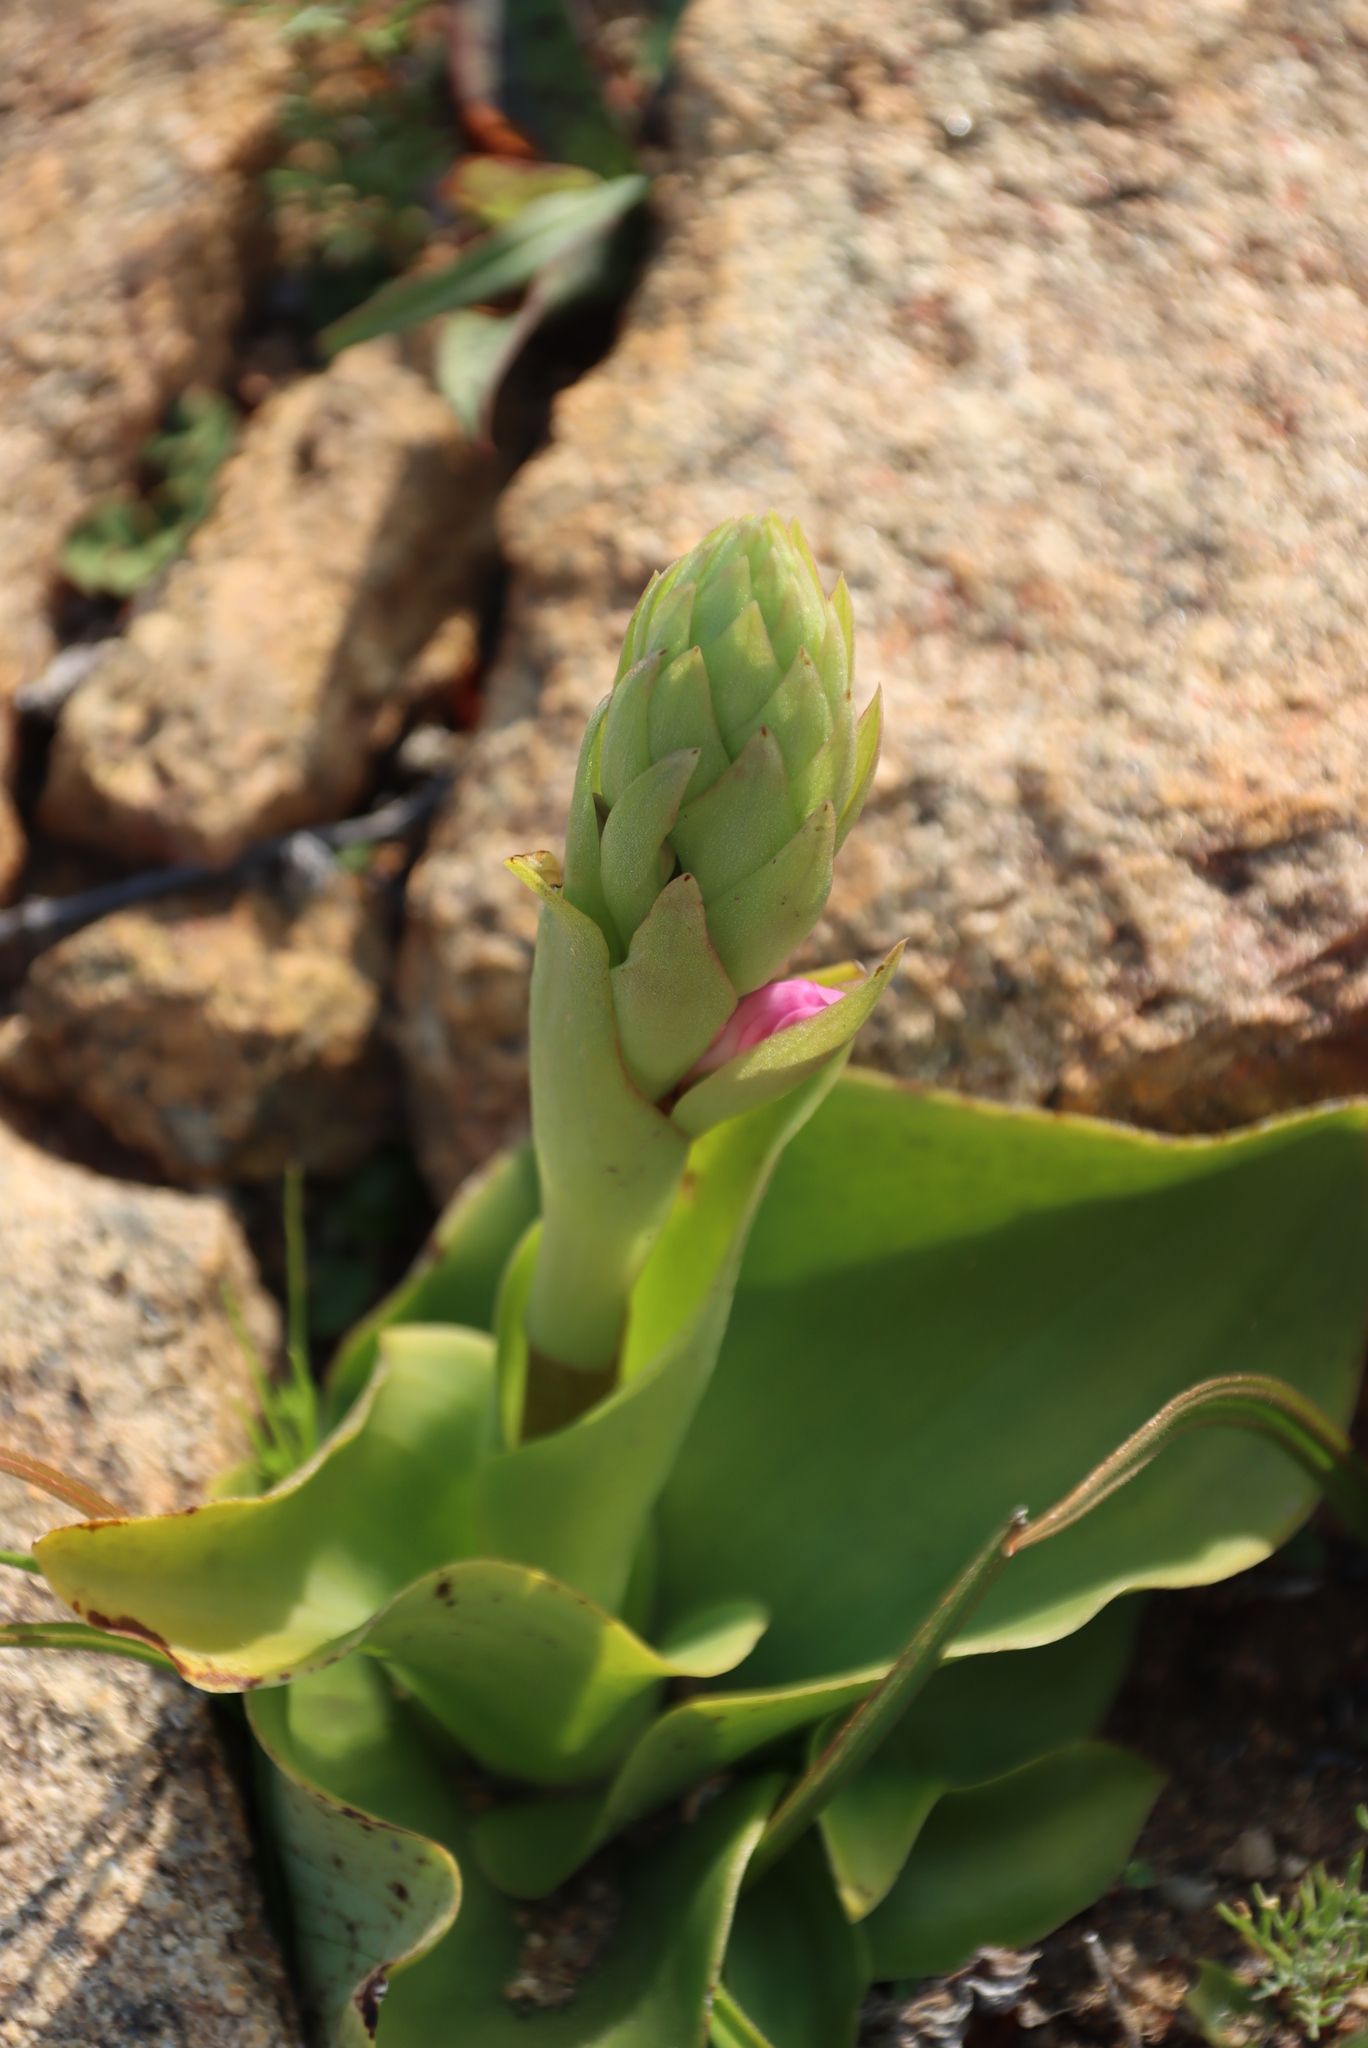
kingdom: Plantae
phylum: Tracheophyta
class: Liliopsida
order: Asparagales
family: Orchidaceae
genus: Satyrium
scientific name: Satyrium erectum
